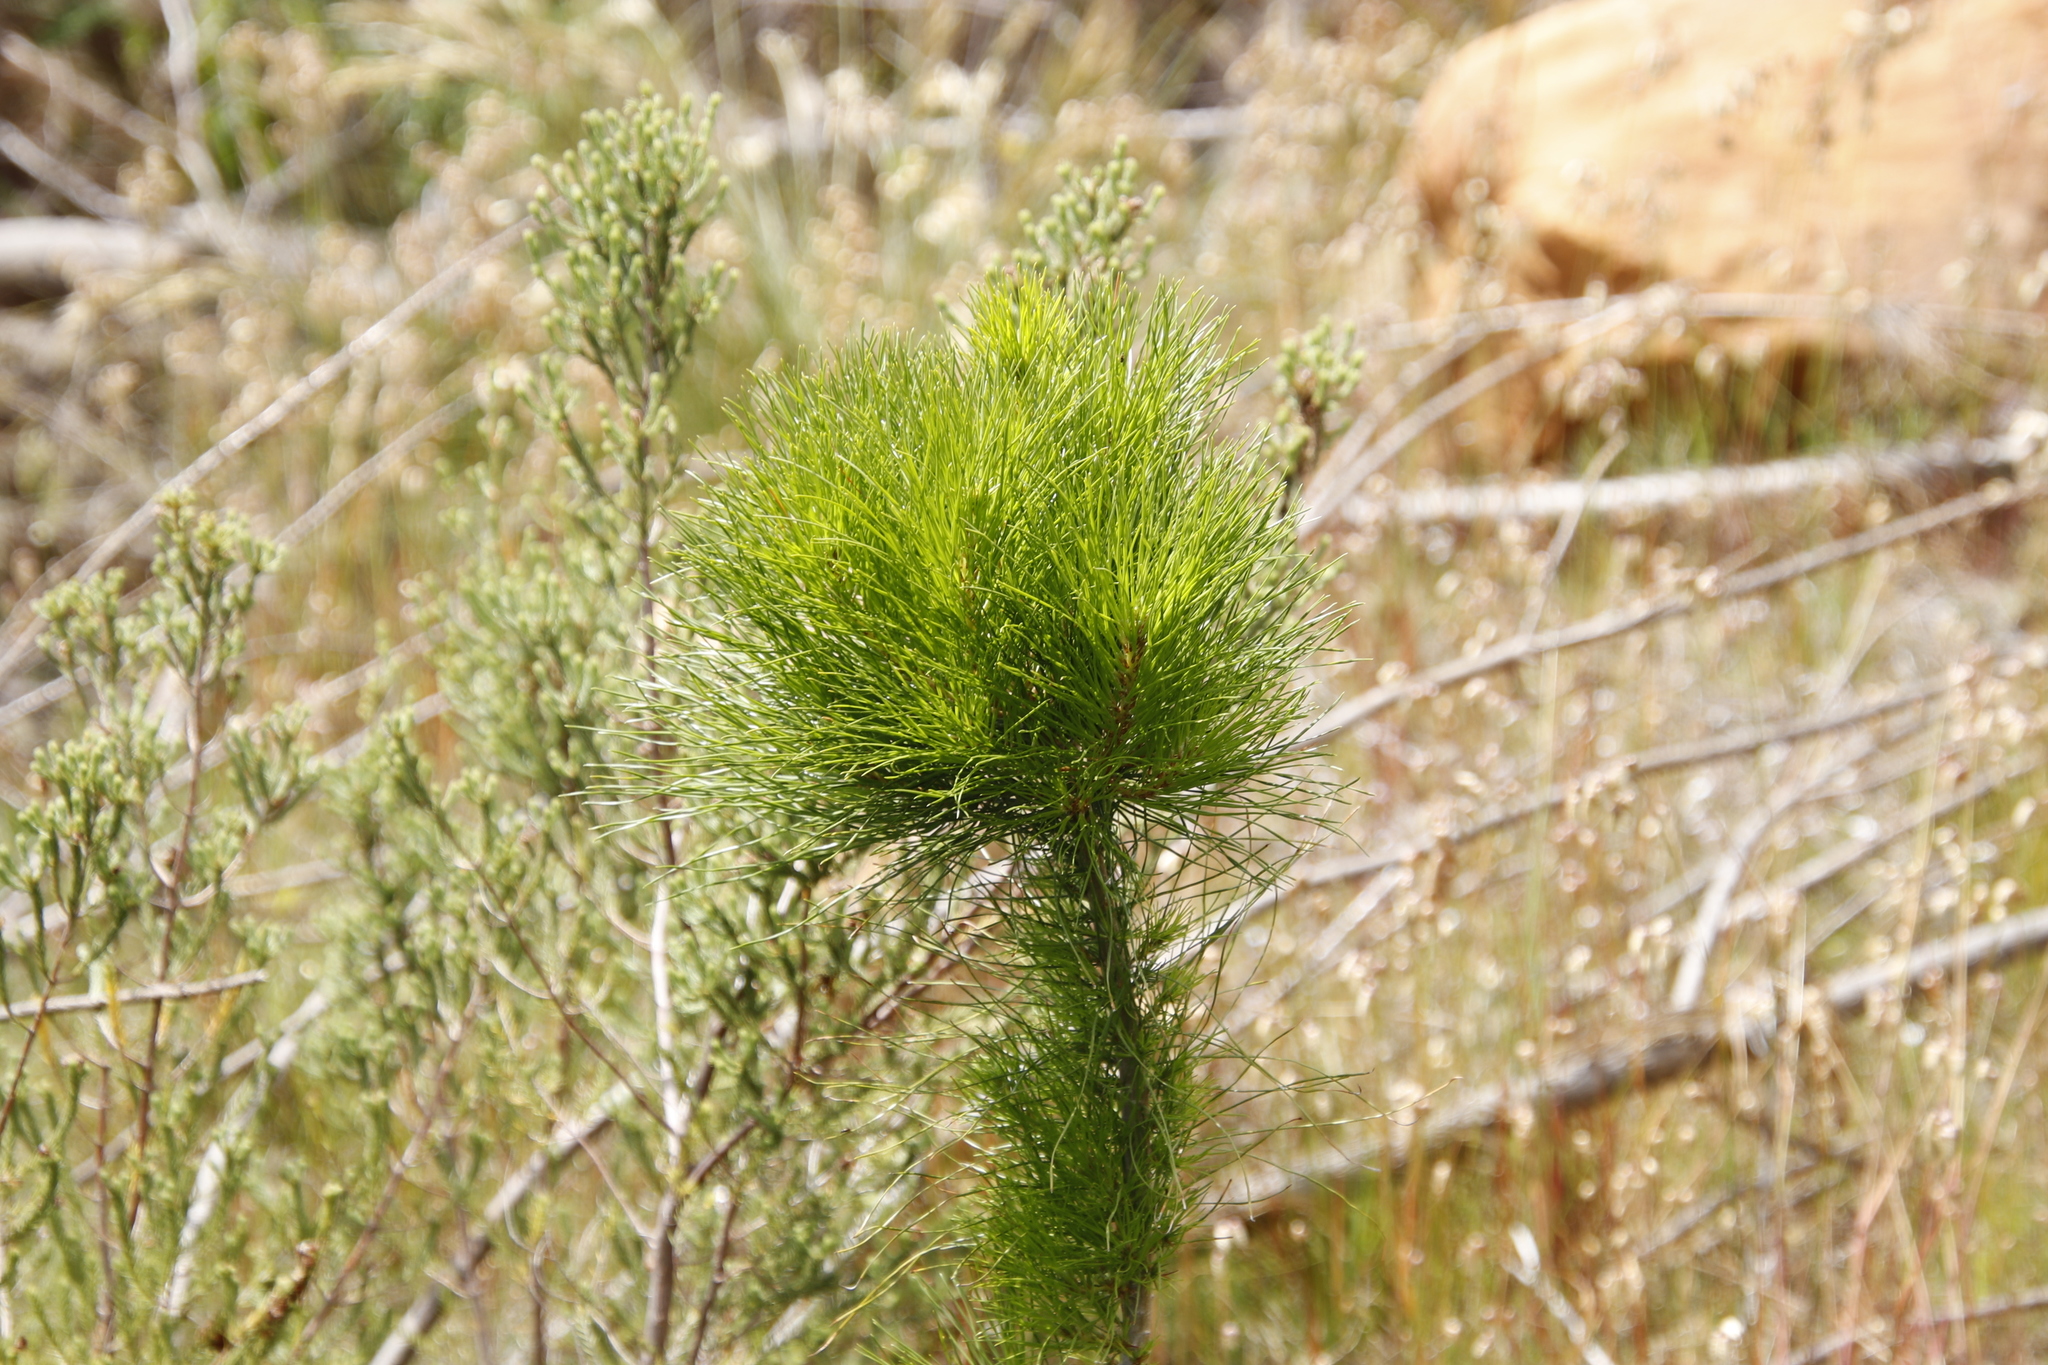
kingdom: Plantae
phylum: Tracheophyta
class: Pinopsida
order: Pinales
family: Pinaceae
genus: Pinus
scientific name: Pinus radiata
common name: Monterey pine
